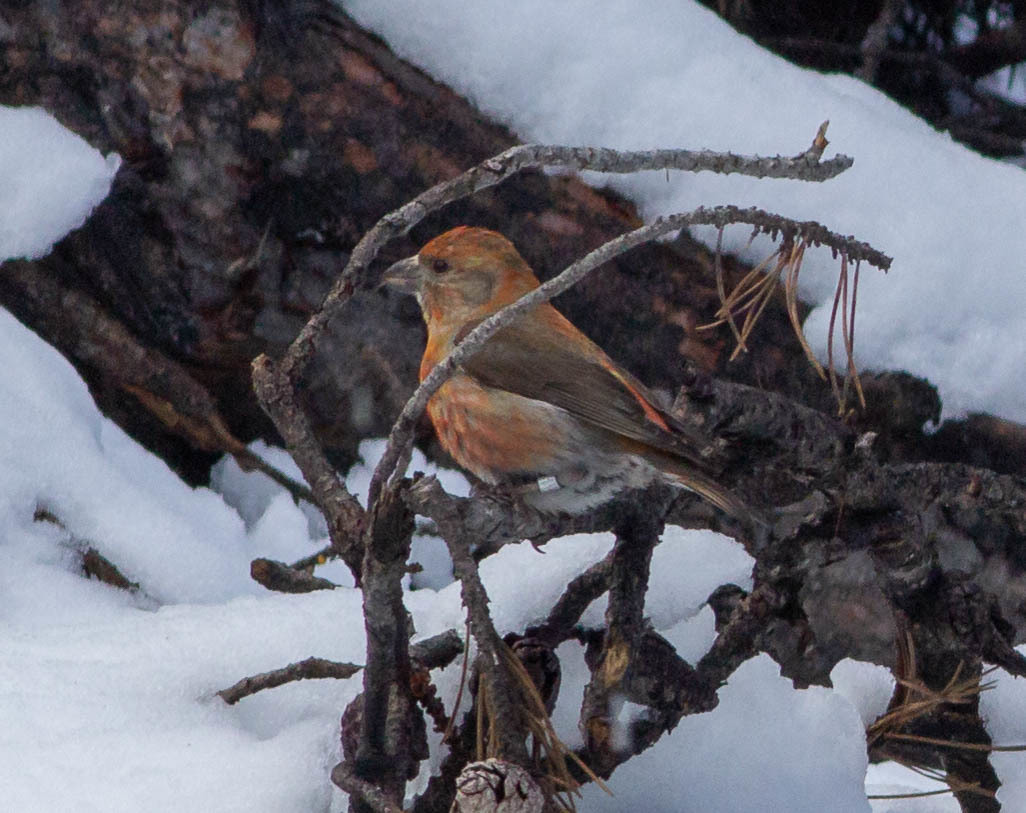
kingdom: Animalia
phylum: Chordata
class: Aves
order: Passeriformes
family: Fringillidae
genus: Loxia
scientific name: Loxia sinesciuris
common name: Cassia crossbill
